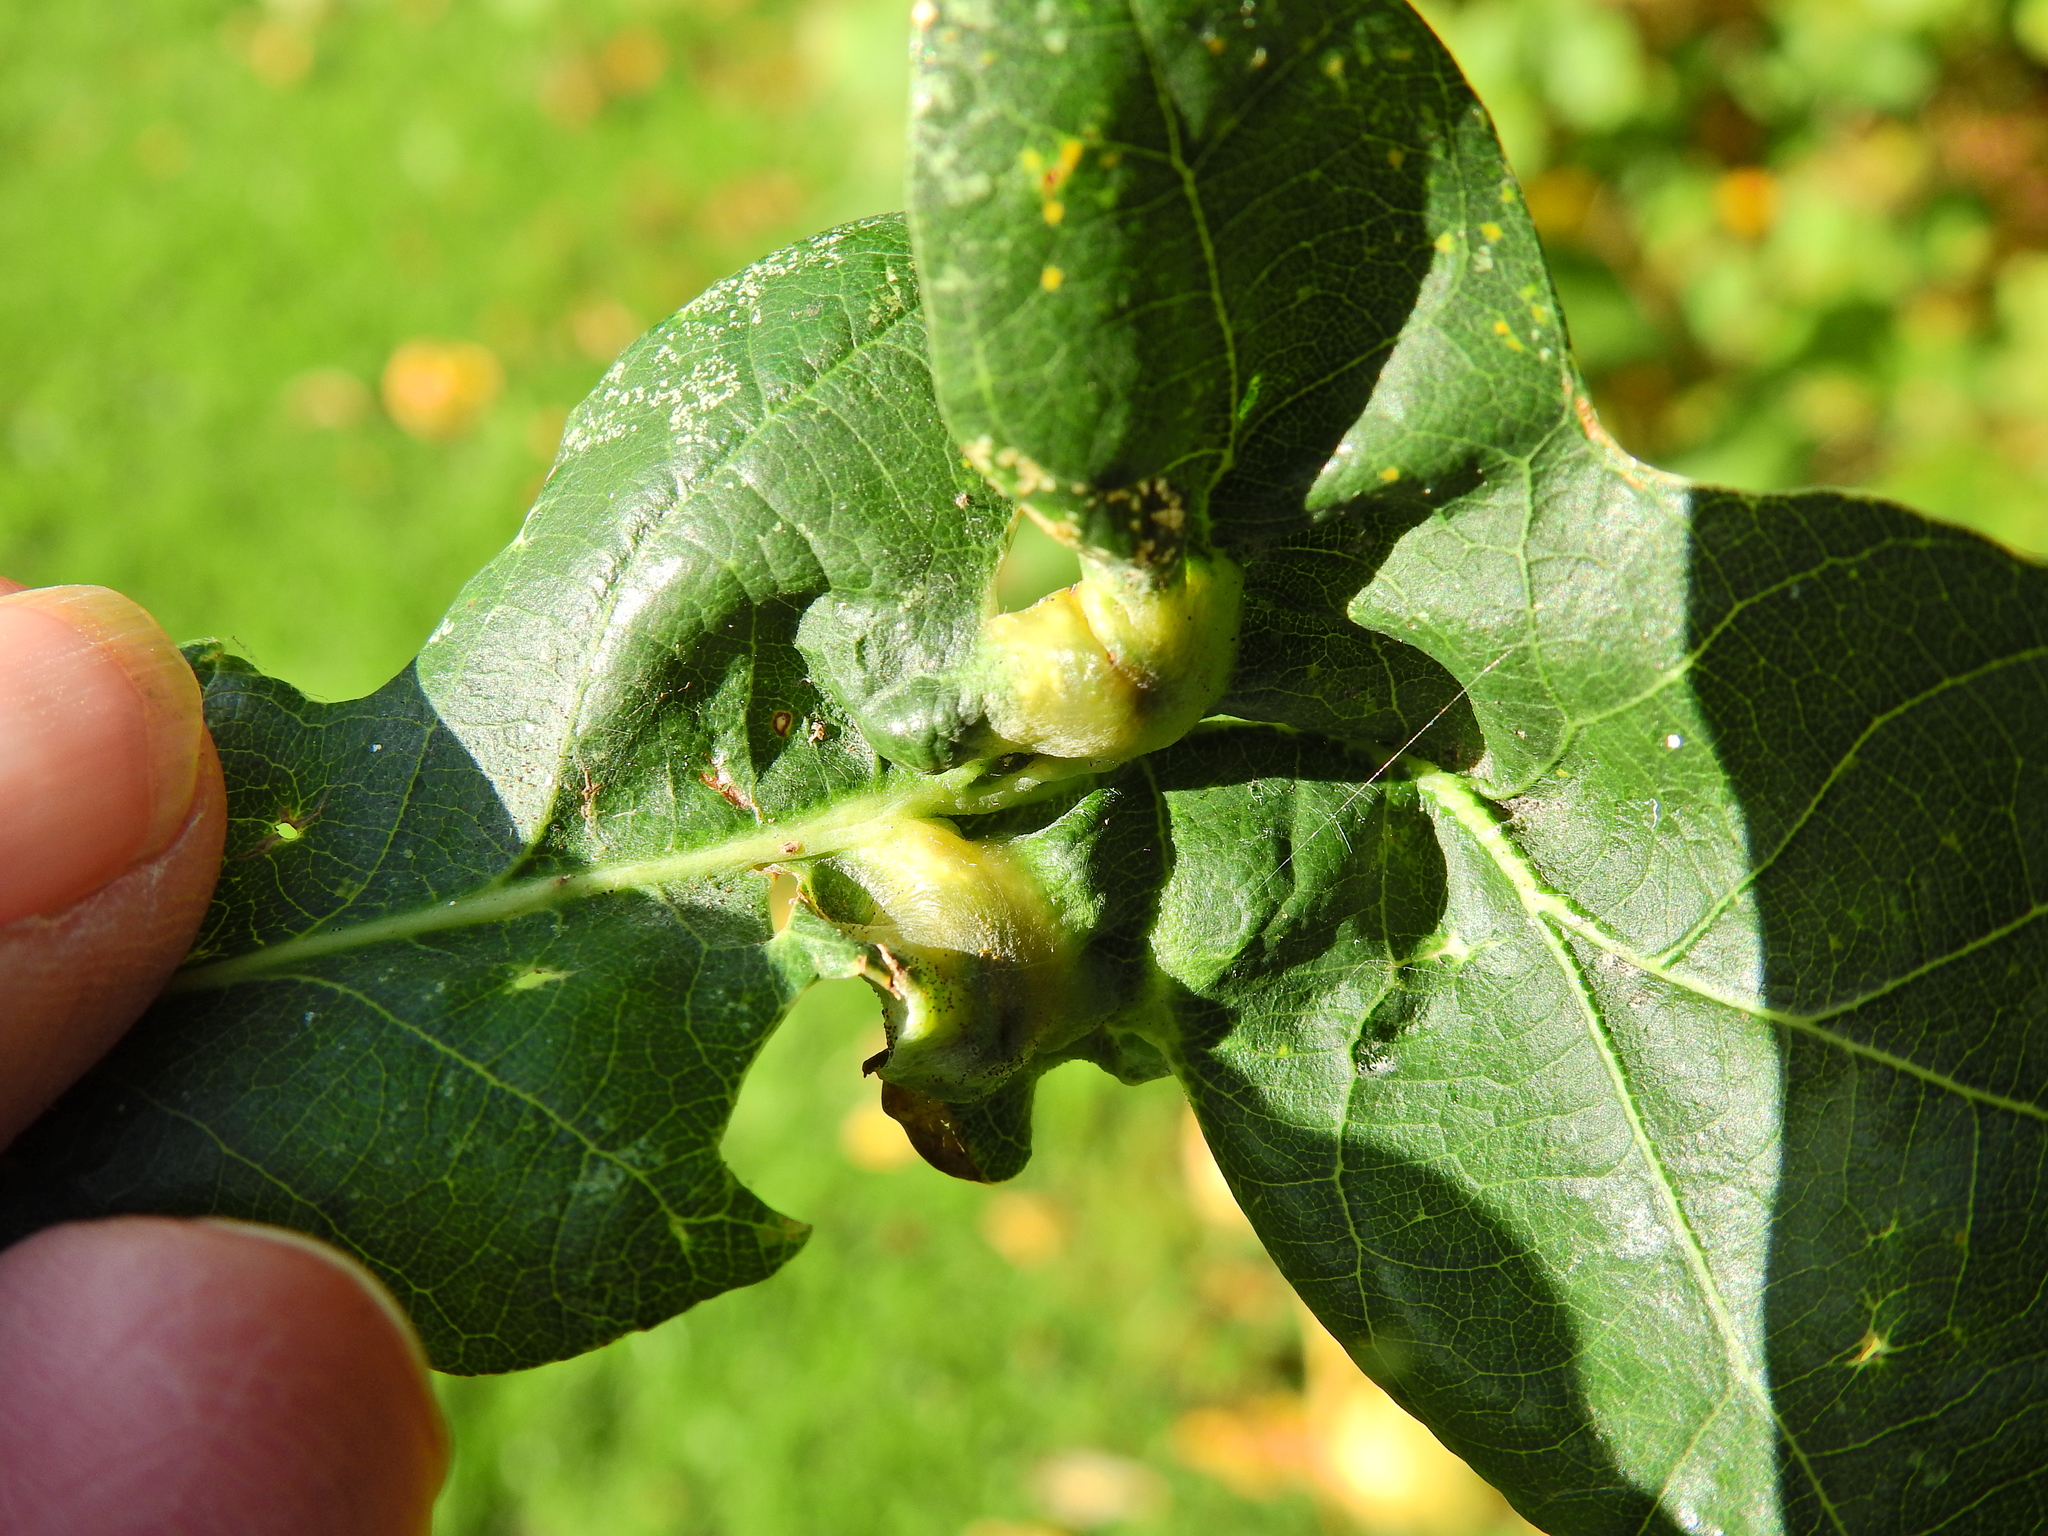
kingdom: Animalia
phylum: Arthropoda
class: Insecta
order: Hymenoptera
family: Cynipidae
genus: Andricus
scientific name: Andricus curvator
